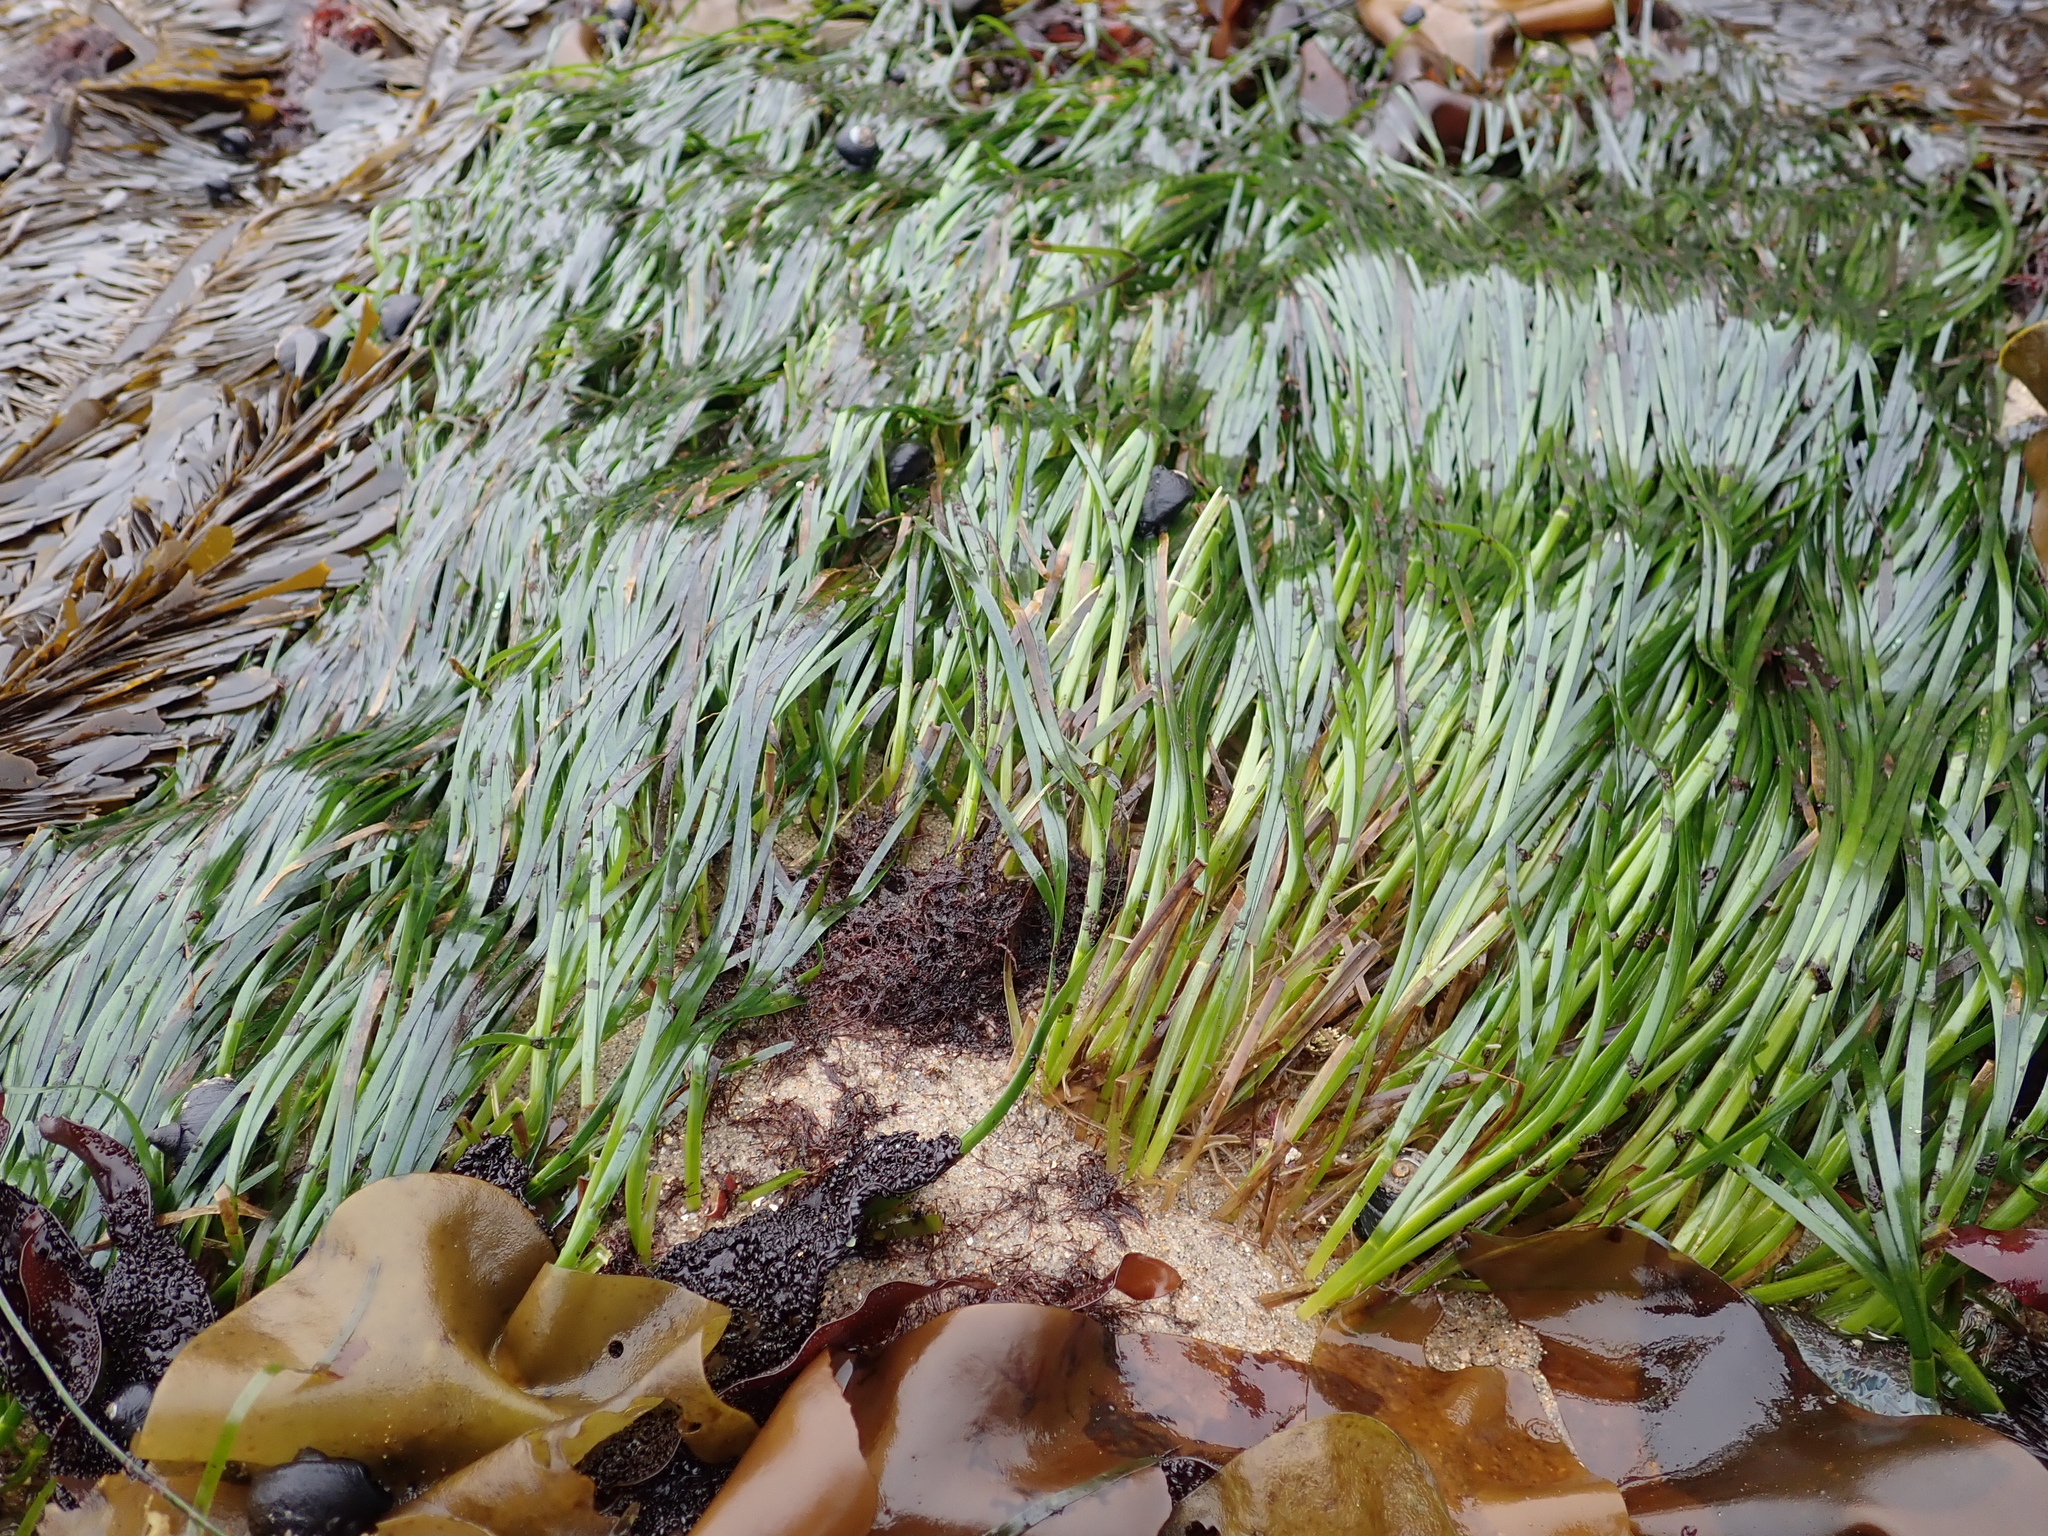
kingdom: Plantae
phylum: Tracheophyta
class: Liliopsida
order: Alismatales
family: Zosteraceae
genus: Phyllospadix
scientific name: Phyllospadix scouleri
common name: Species code: ps
